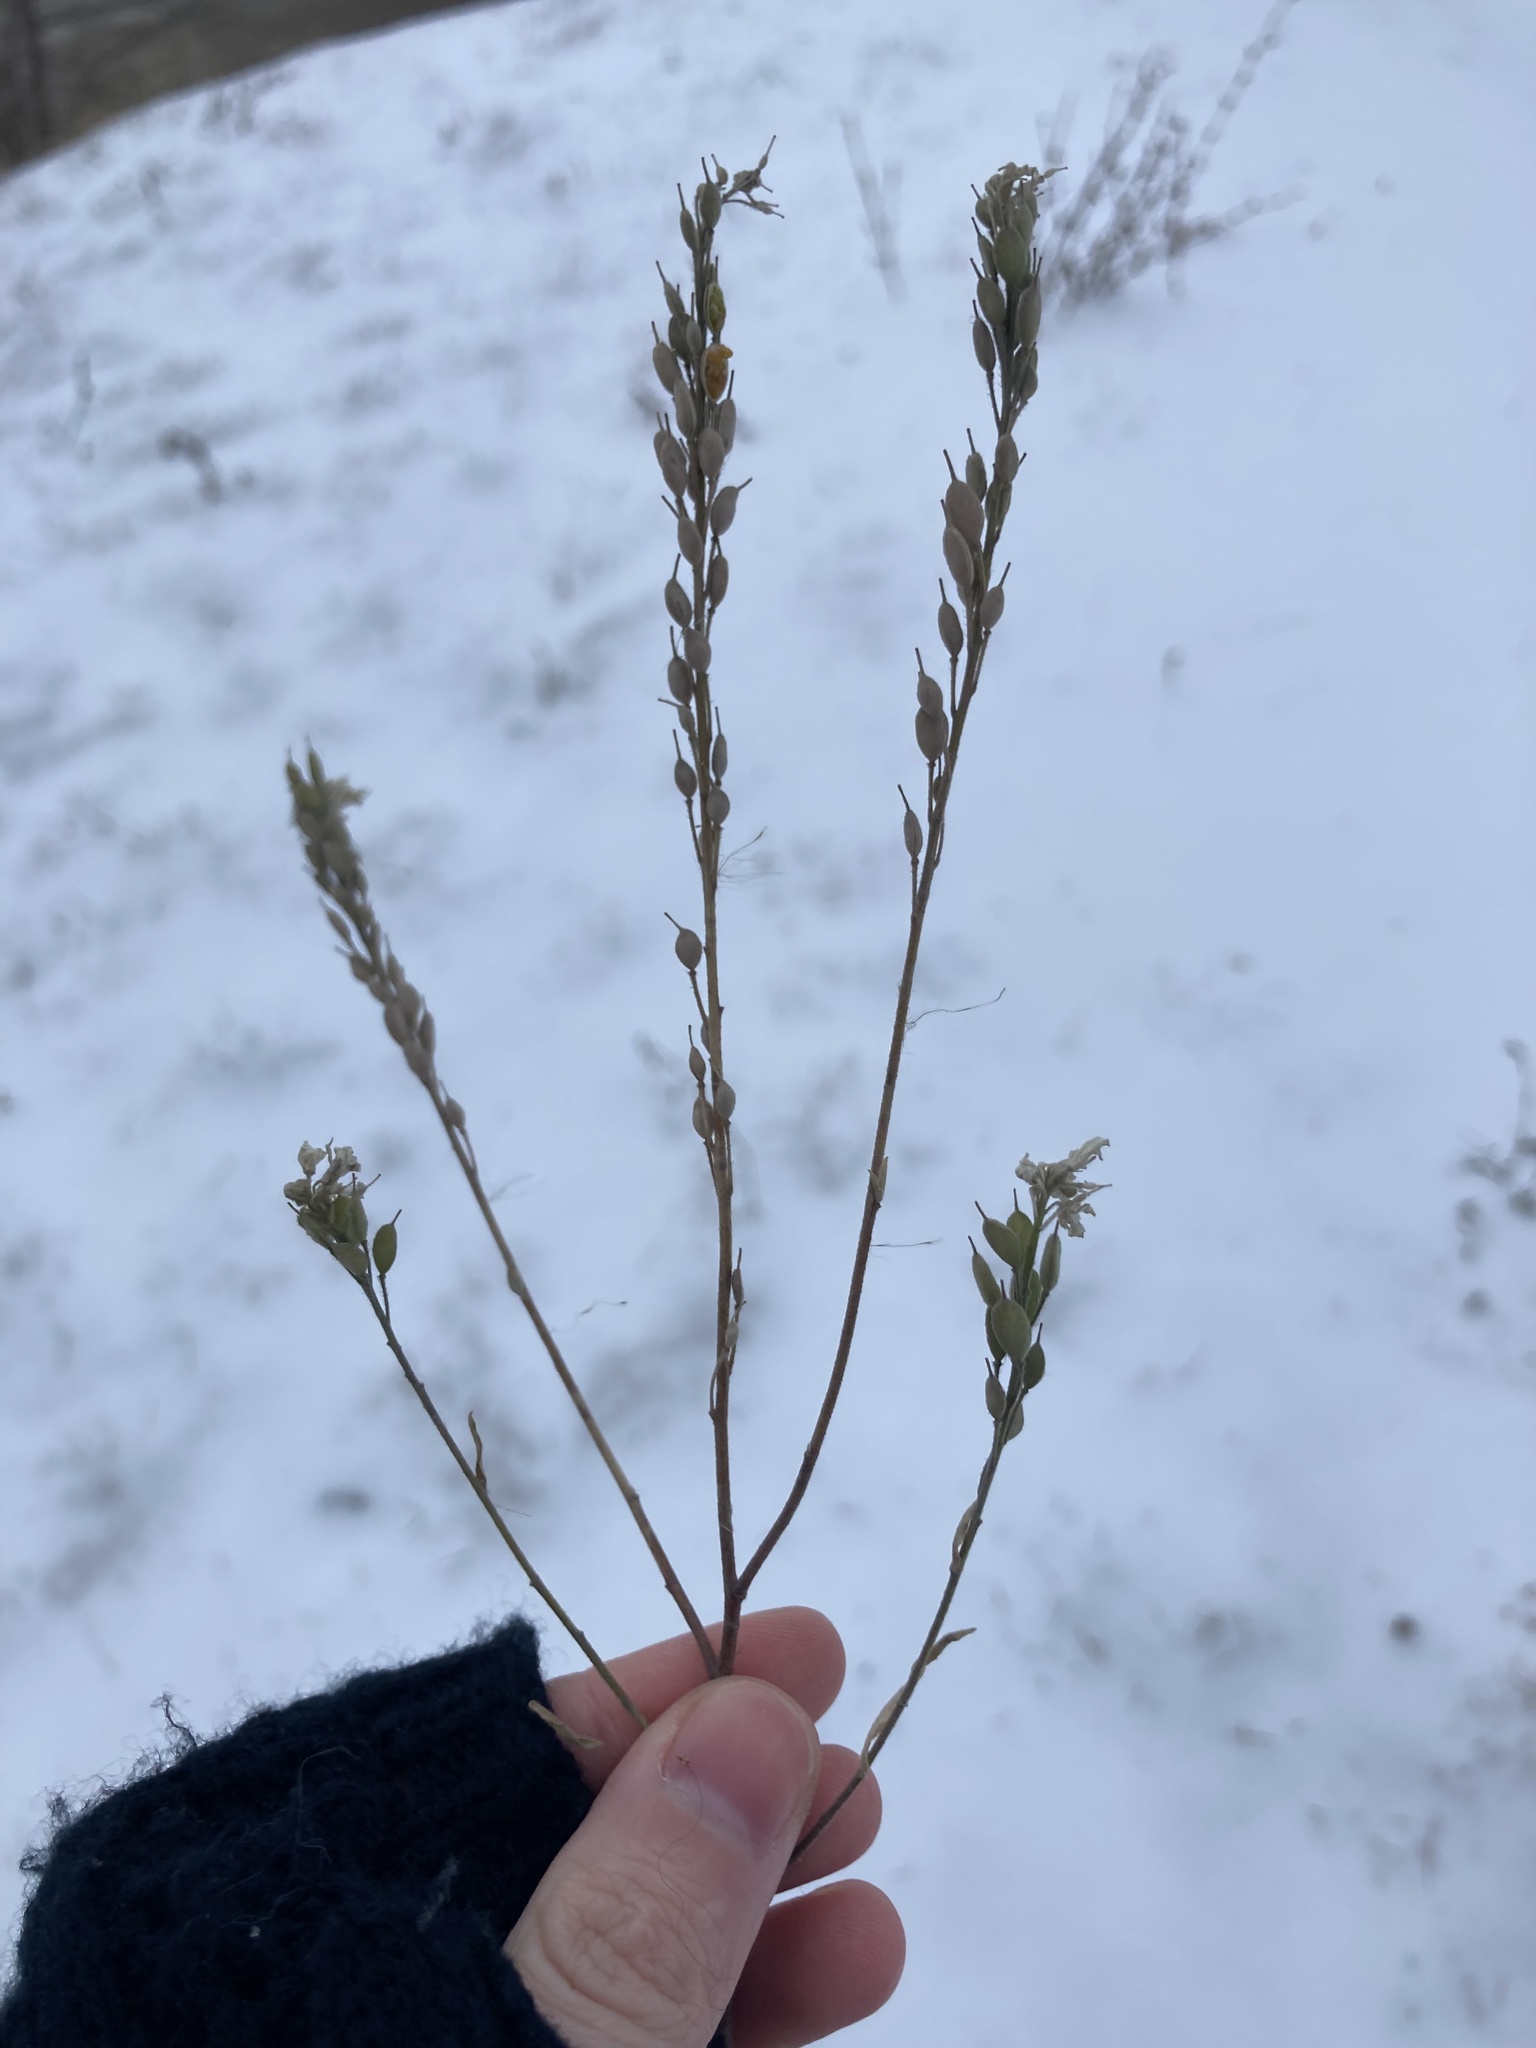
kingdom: Plantae
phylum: Tracheophyta
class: Magnoliopsida
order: Brassicales
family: Brassicaceae
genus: Berteroa
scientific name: Berteroa incana
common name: Hoary alison
